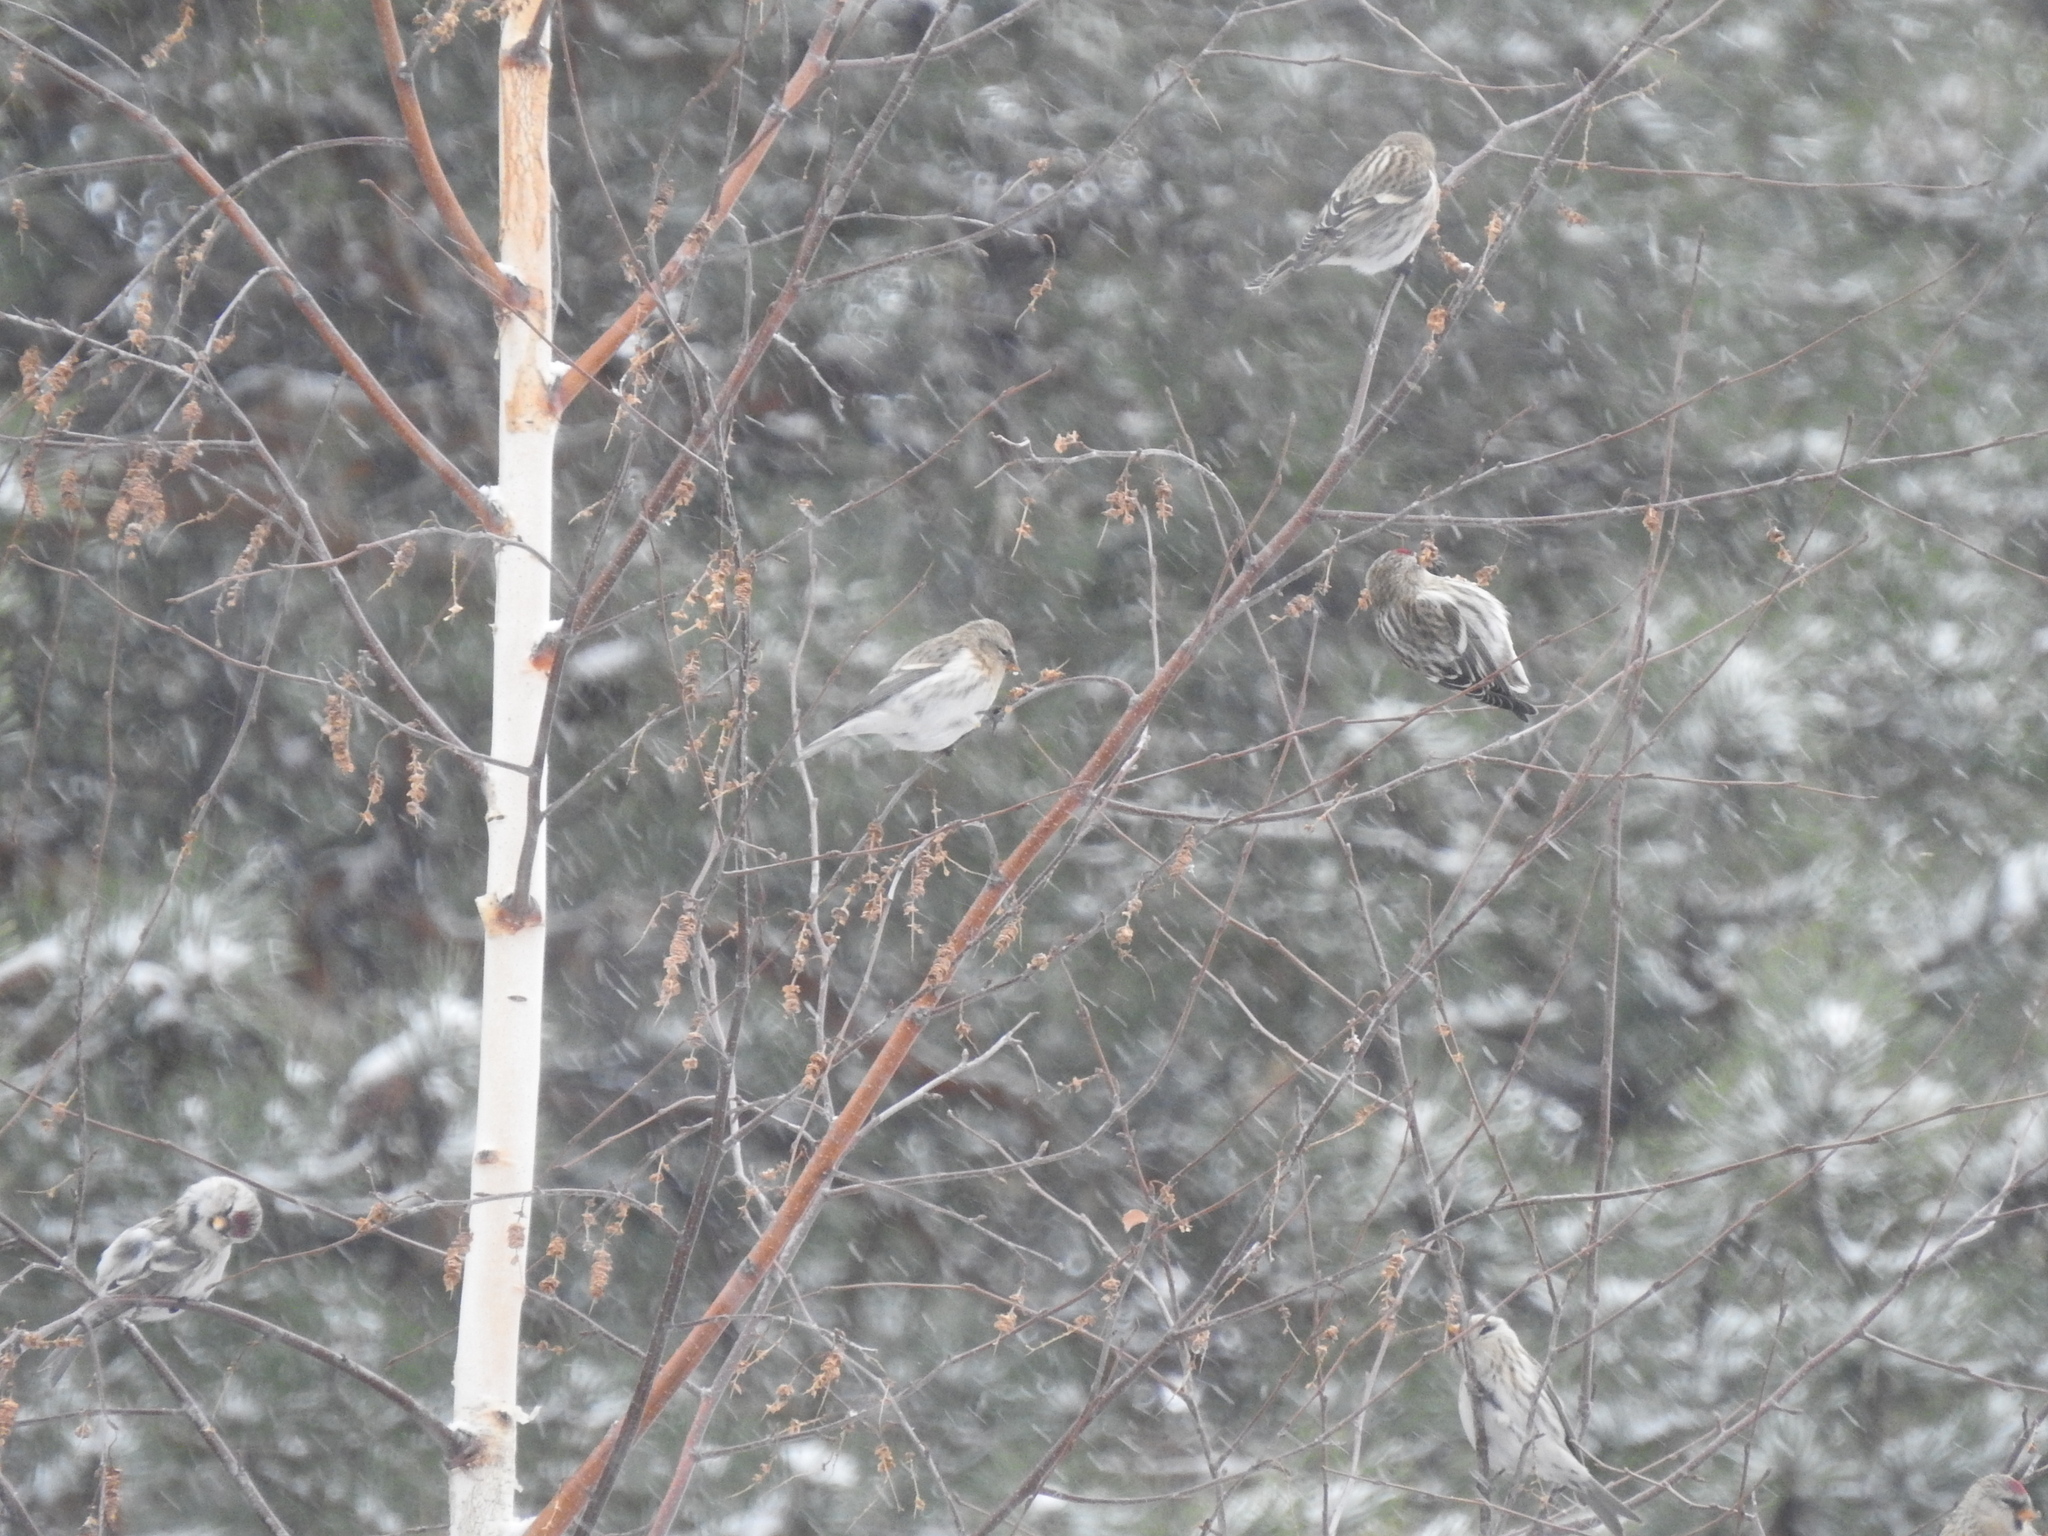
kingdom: Animalia
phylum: Chordata
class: Aves
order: Passeriformes
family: Fringillidae
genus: Acanthis
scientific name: Acanthis flammea
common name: Common redpoll
